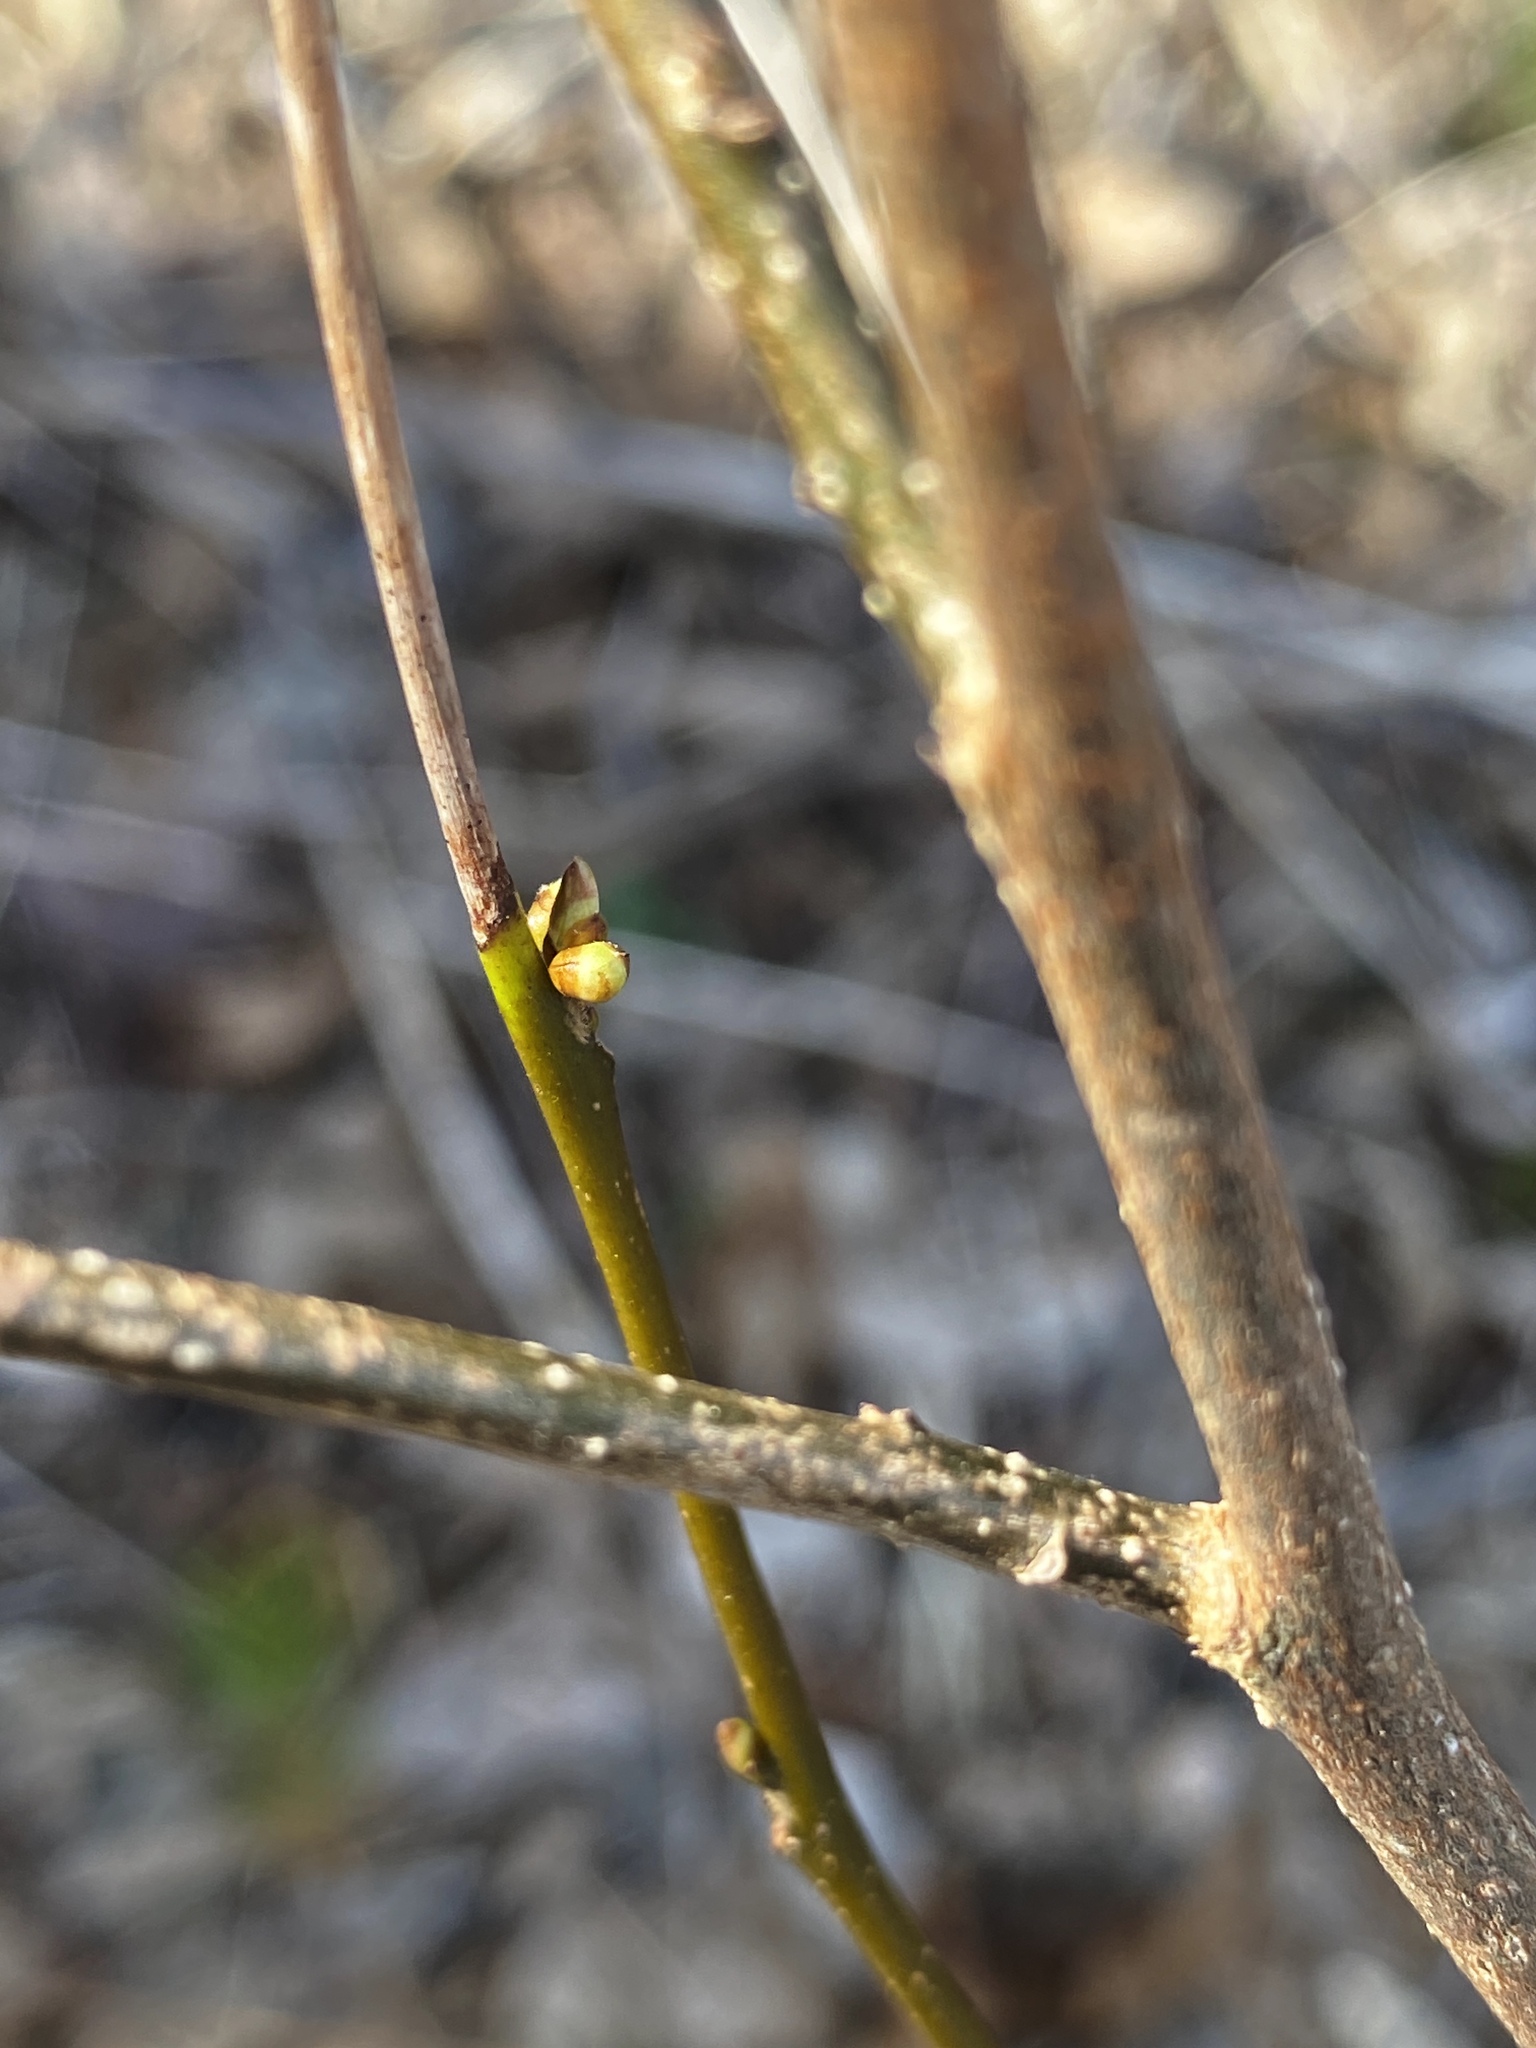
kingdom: Plantae
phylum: Tracheophyta
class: Magnoliopsida
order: Laurales
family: Lauraceae
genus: Lindera
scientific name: Lindera benzoin
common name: Spicebush
